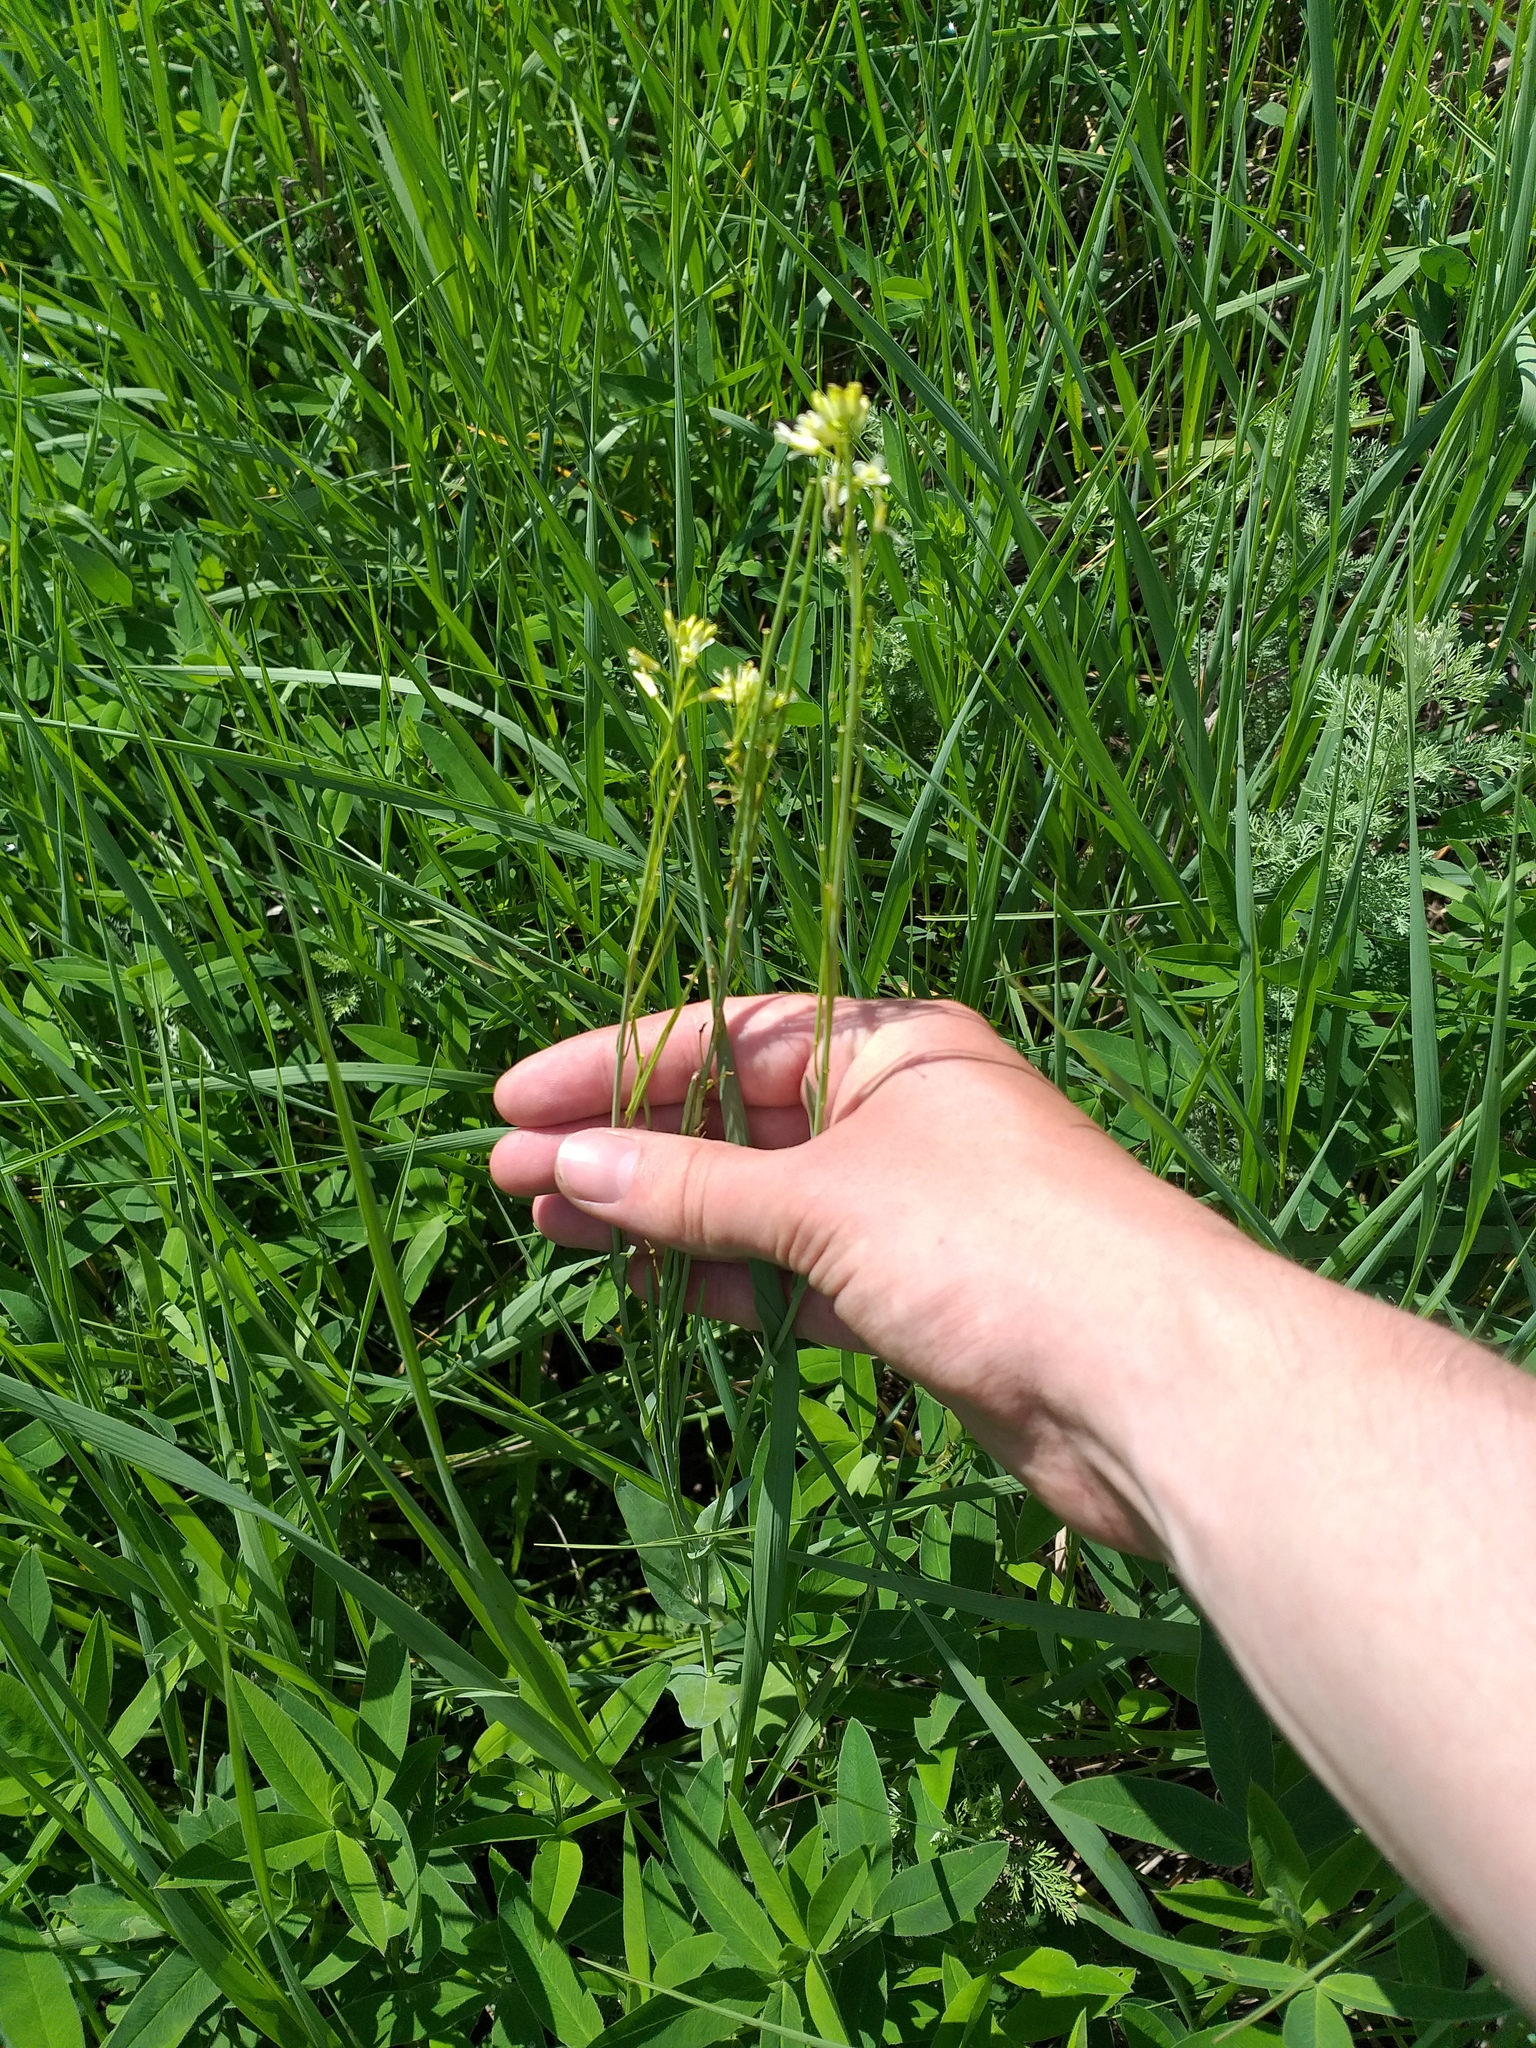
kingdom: Plantae
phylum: Tracheophyta
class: Magnoliopsida
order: Brassicales
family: Brassicaceae
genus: Turritis
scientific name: Turritis glabra
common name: Tower rockcress
